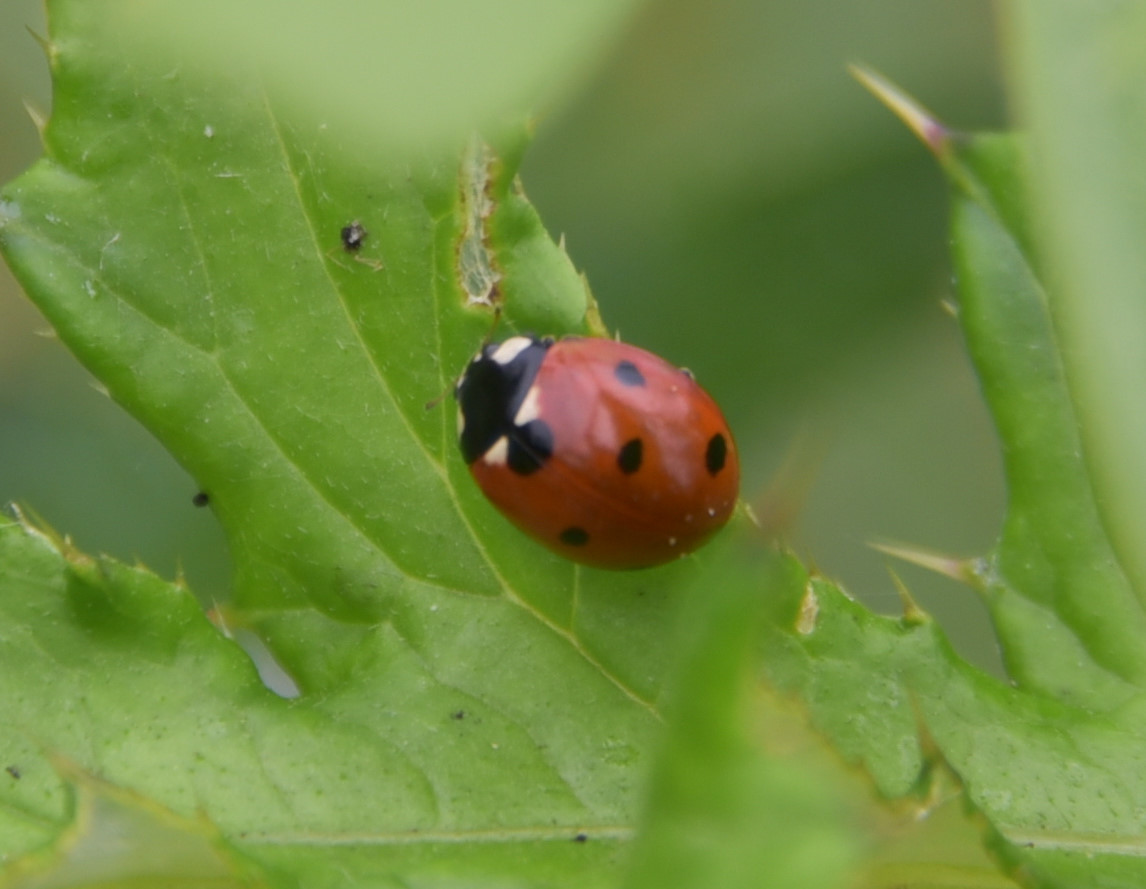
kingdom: Animalia
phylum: Arthropoda
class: Insecta
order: Coleoptera
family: Coccinellidae
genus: Coccinella
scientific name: Coccinella septempunctata
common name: Sevenspotted lady beetle
